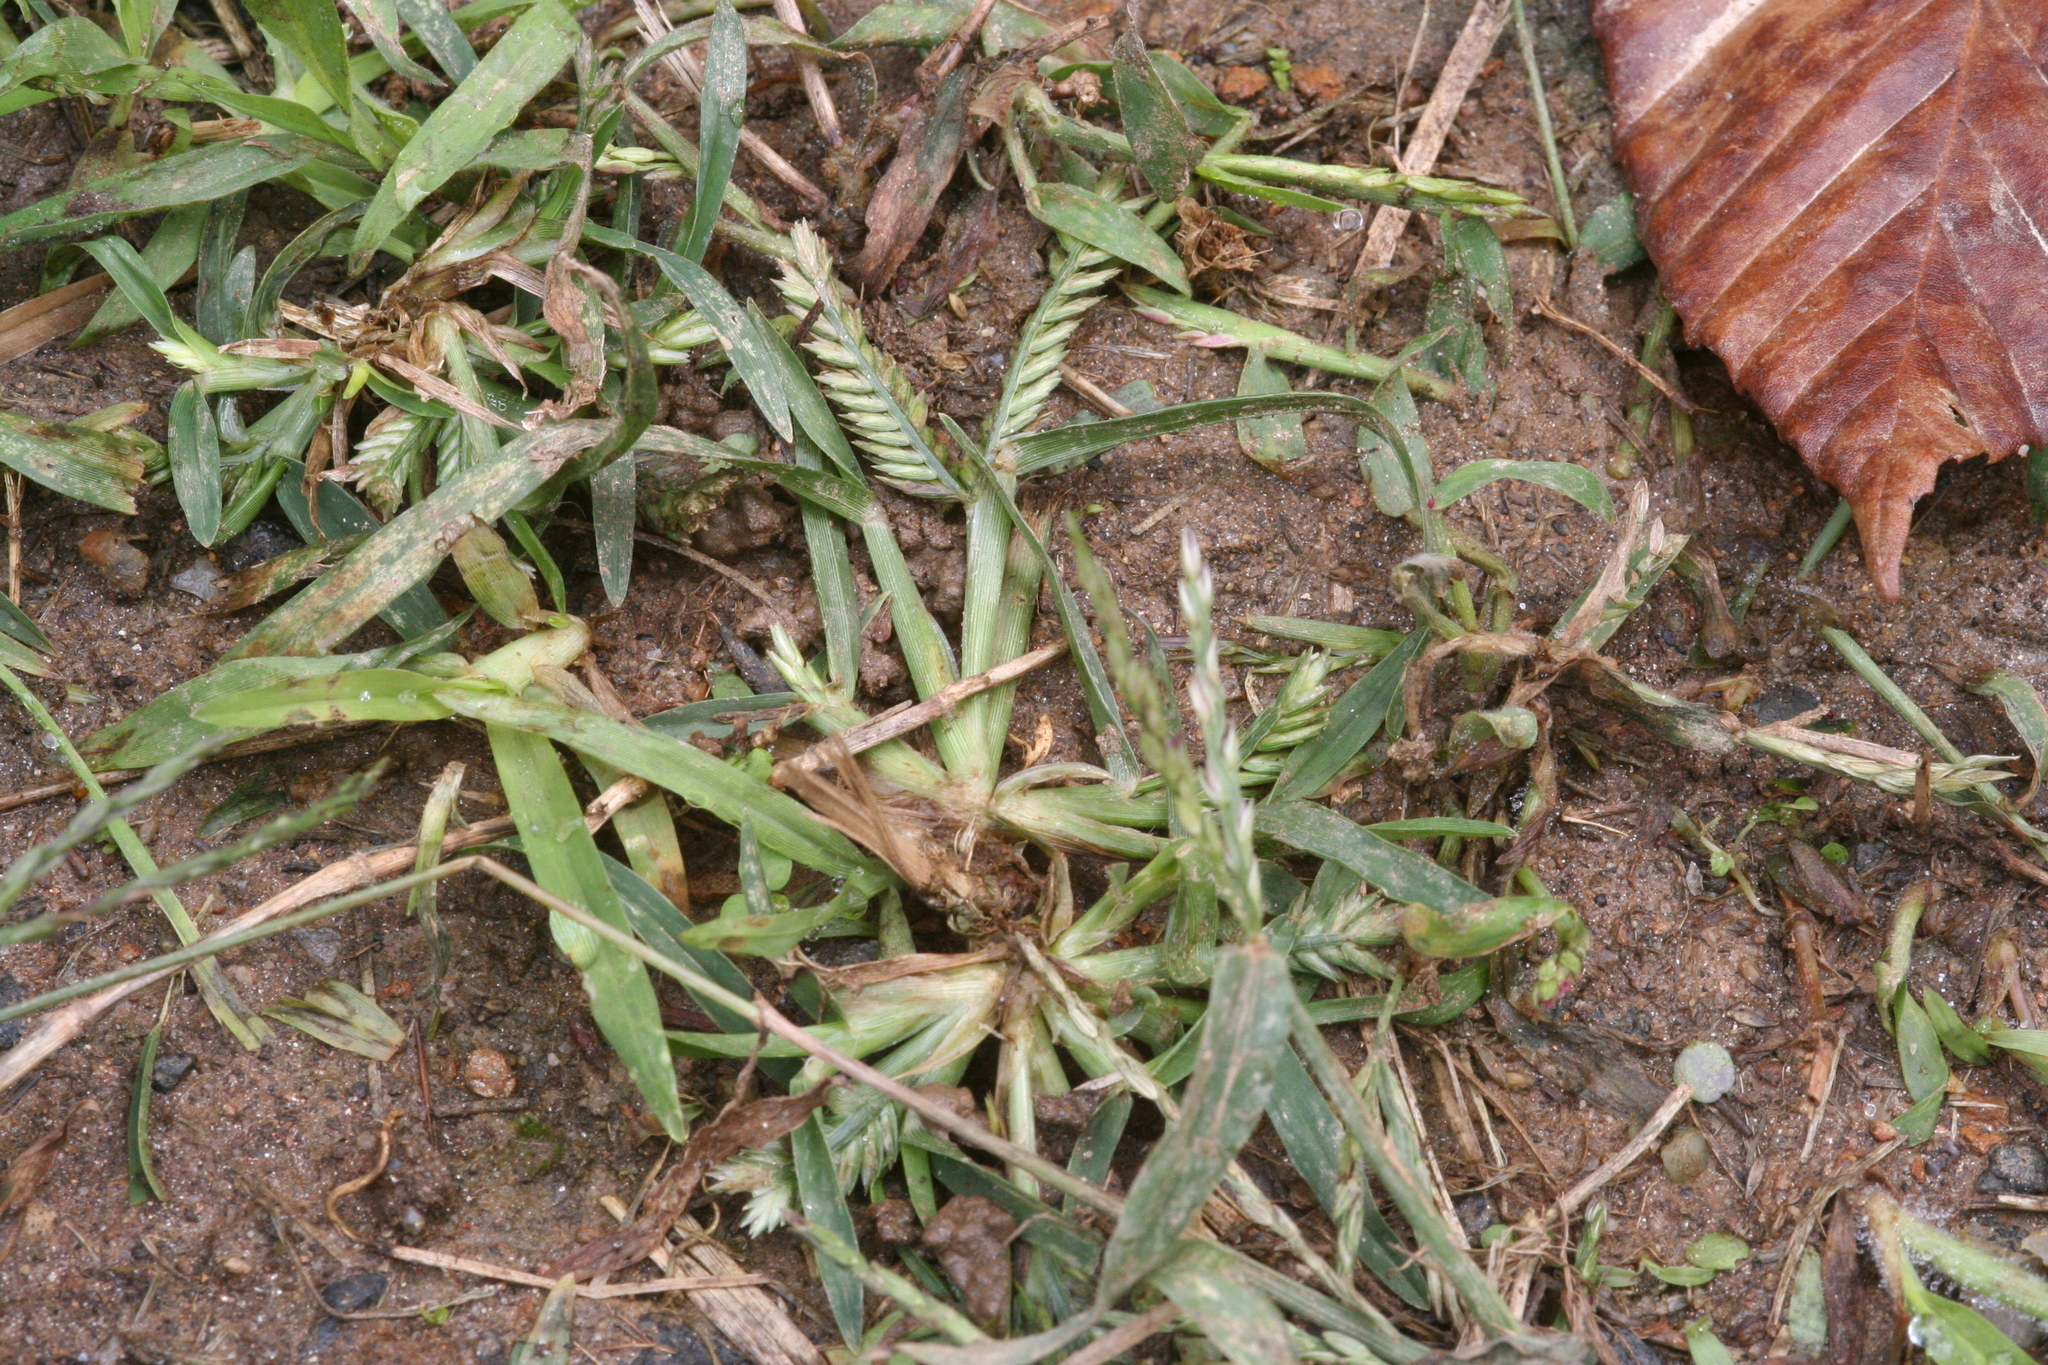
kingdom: Plantae
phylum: Tracheophyta
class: Liliopsida
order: Poales
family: Poaceae
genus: Eleusine
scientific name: Eleusine indica
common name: Yard-grass
